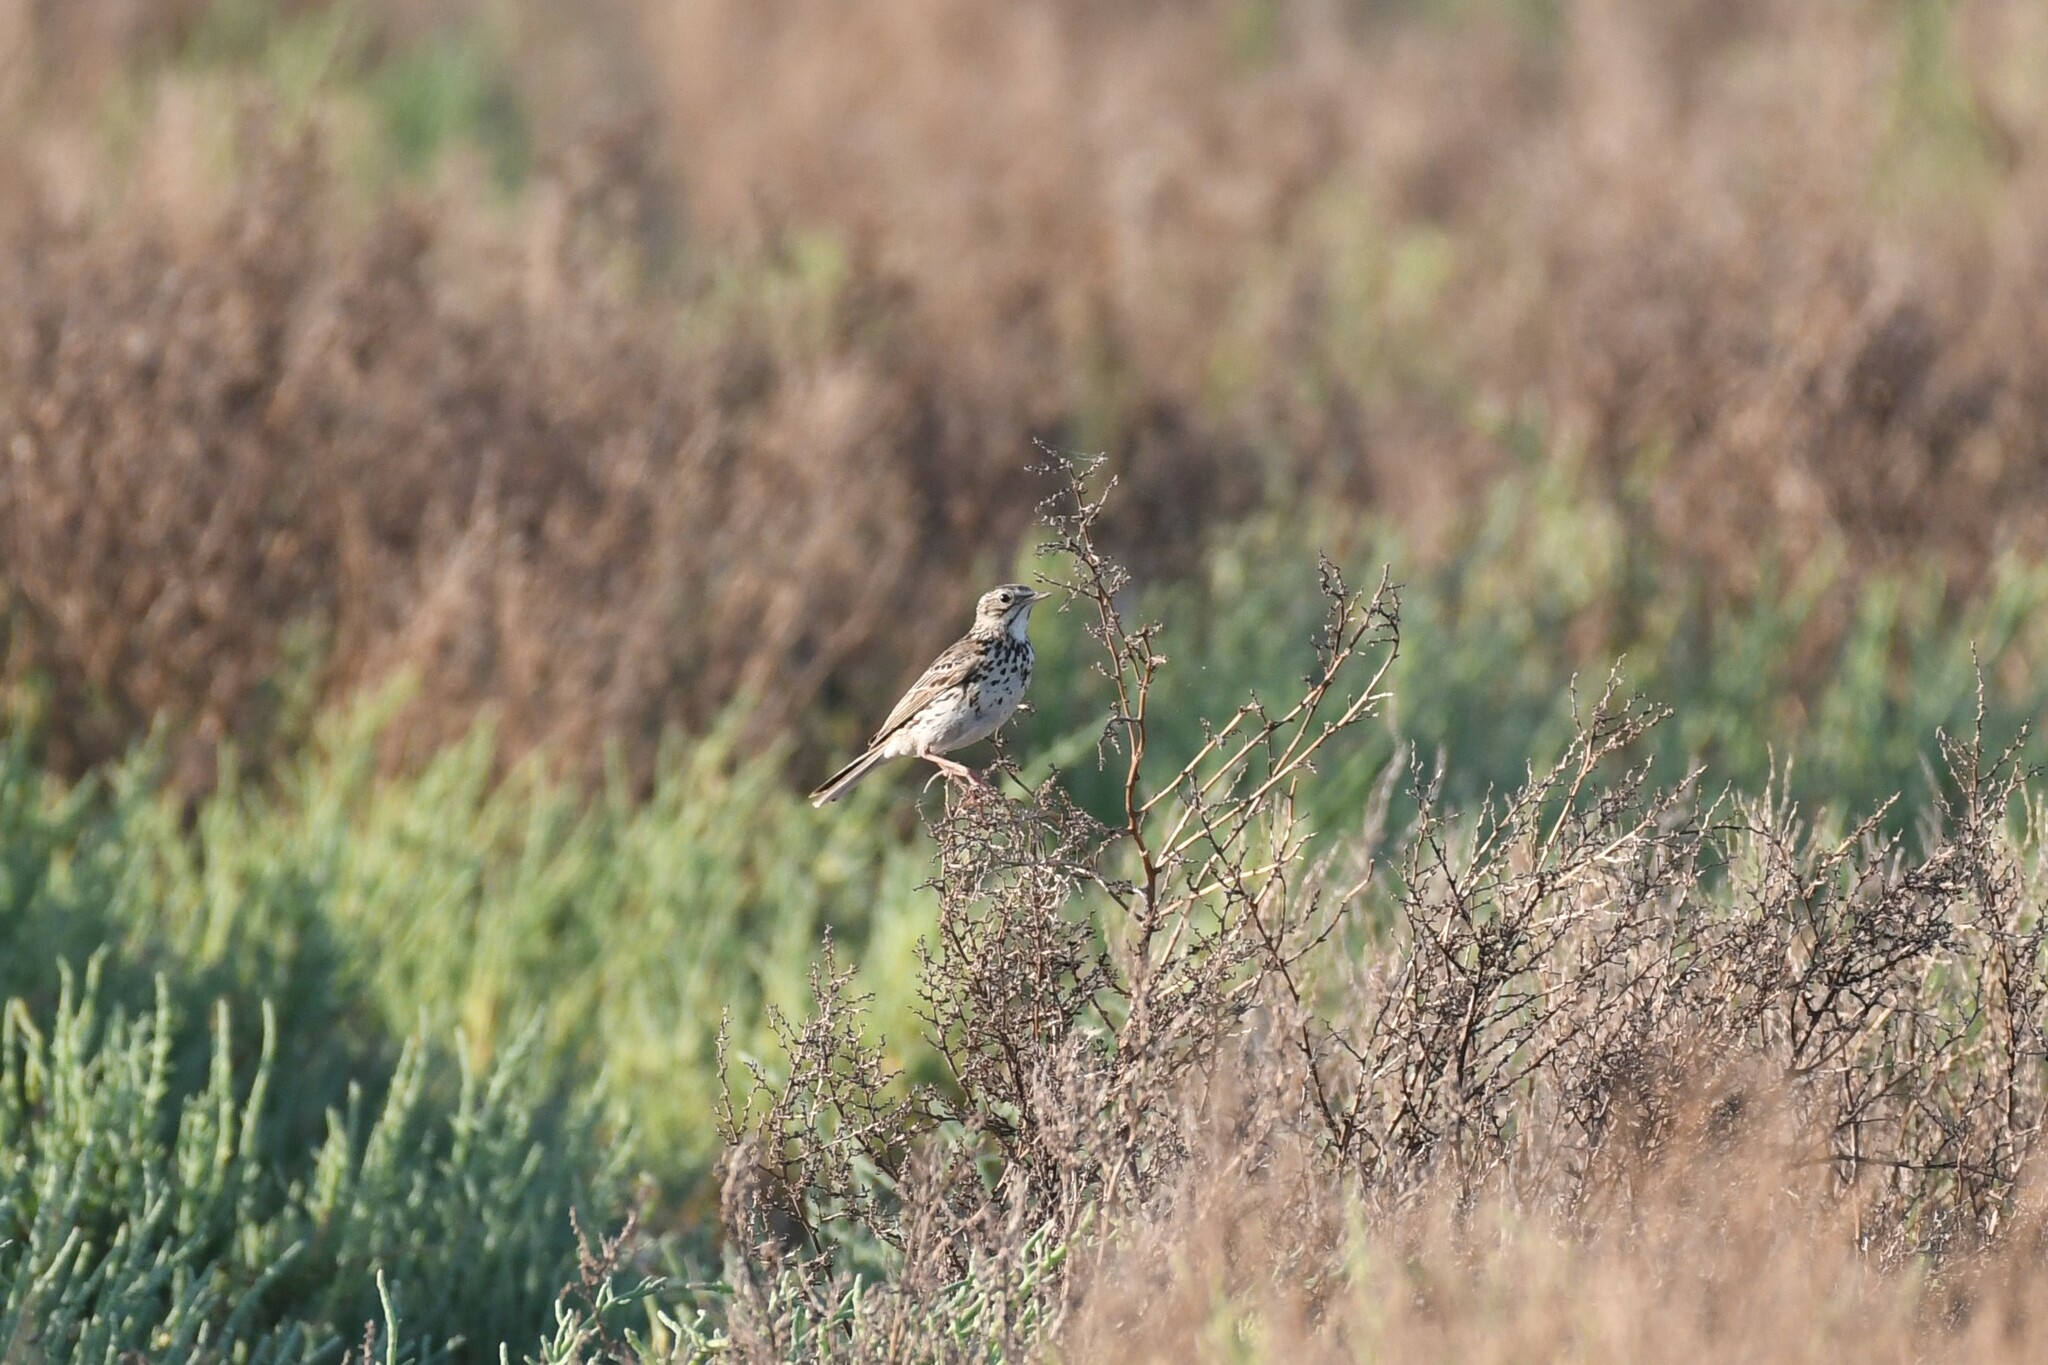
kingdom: Animalia
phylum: Chordata
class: Aves
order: Passeriformes
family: Motacillidae
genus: Anthus
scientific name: Anthus correndera
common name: Correndera pipit
